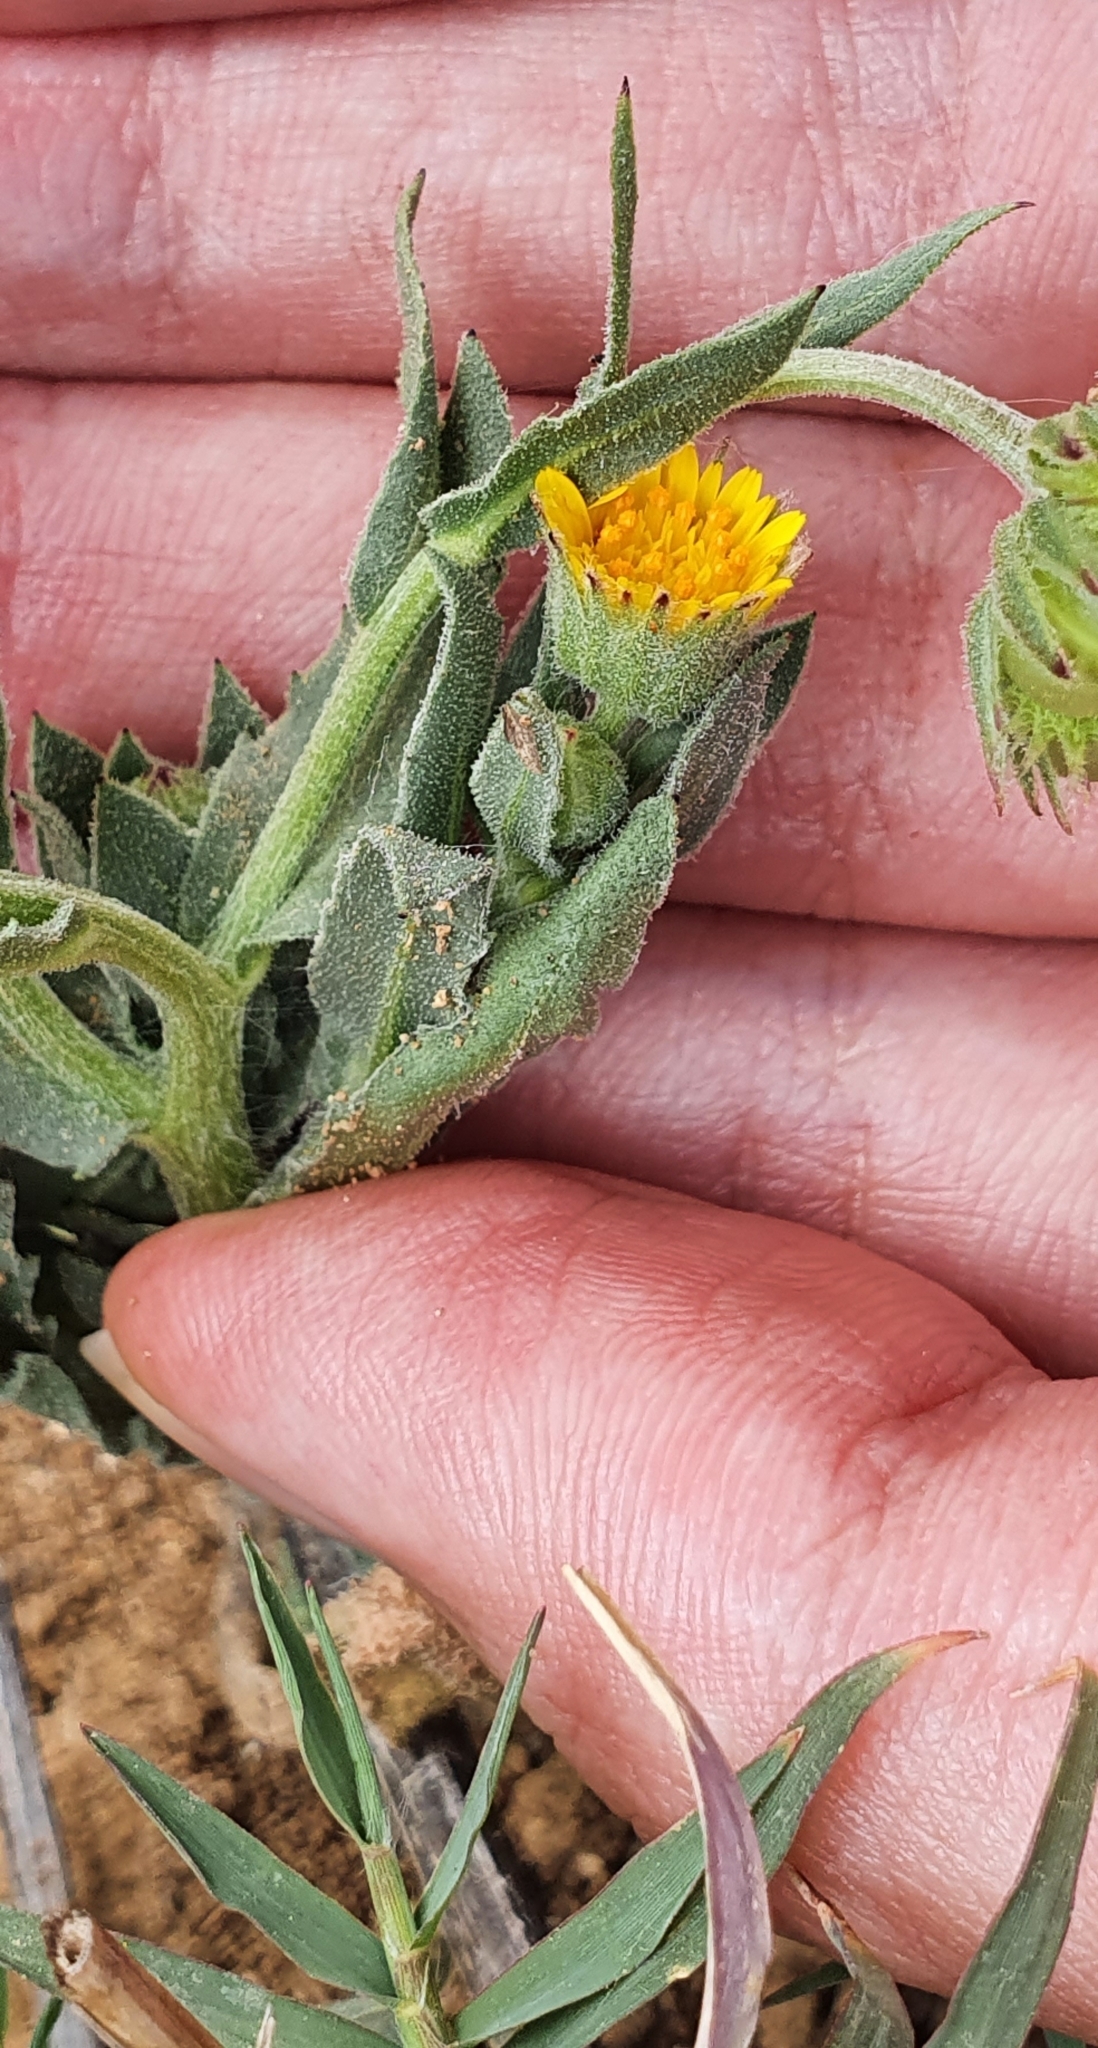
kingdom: Plantae
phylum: Tracheophyta
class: Magnoliopsida
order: Asterales
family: Asteraceae
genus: Calendula
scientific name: Calendula arvensis
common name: Field marigold
